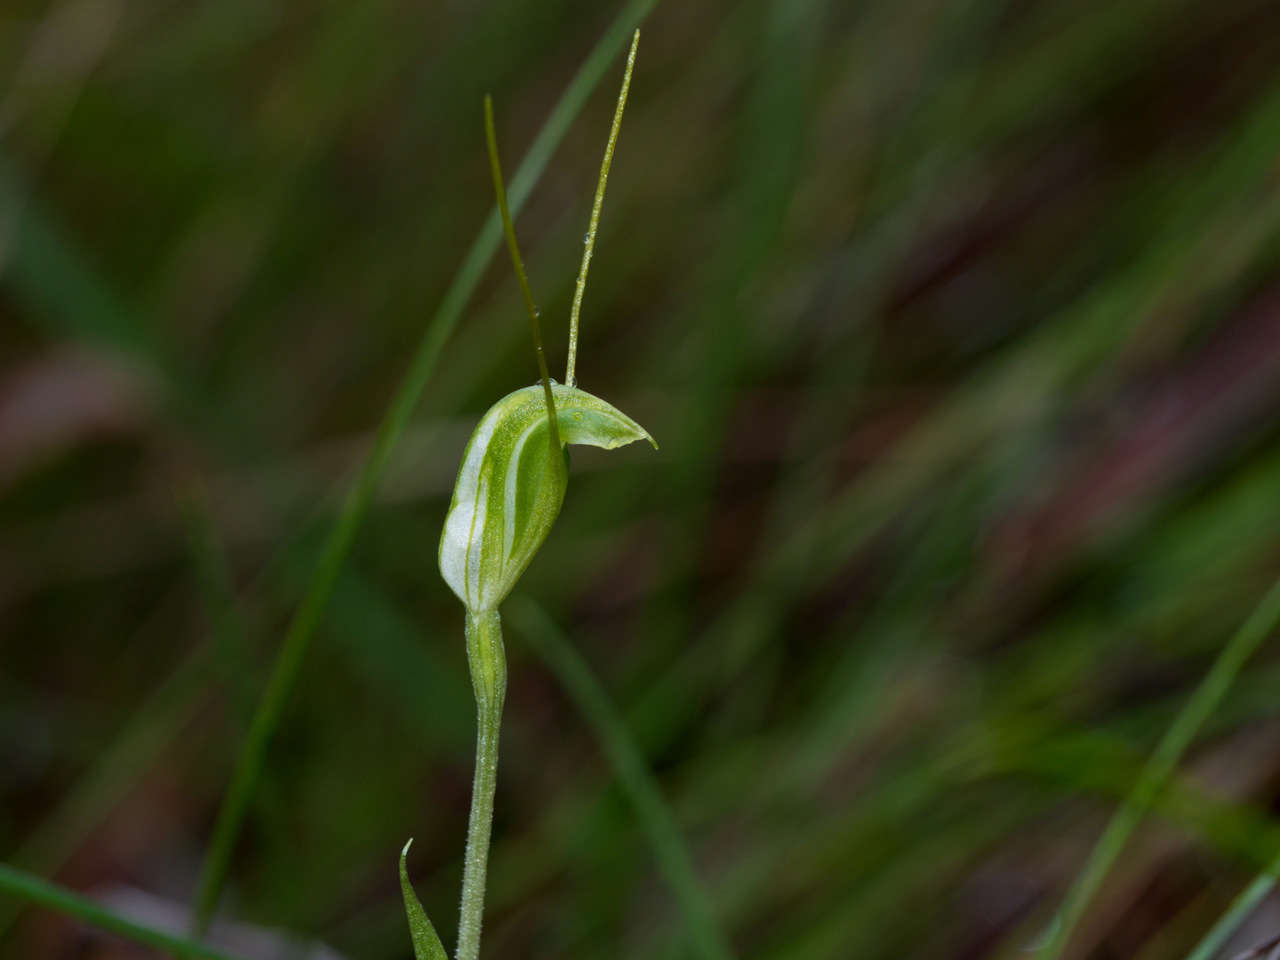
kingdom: Plantae
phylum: Tracheophyta
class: Liliopsida
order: Asparagales
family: Orchidaceae
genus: Pterostylis
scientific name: Pterostylis nana
